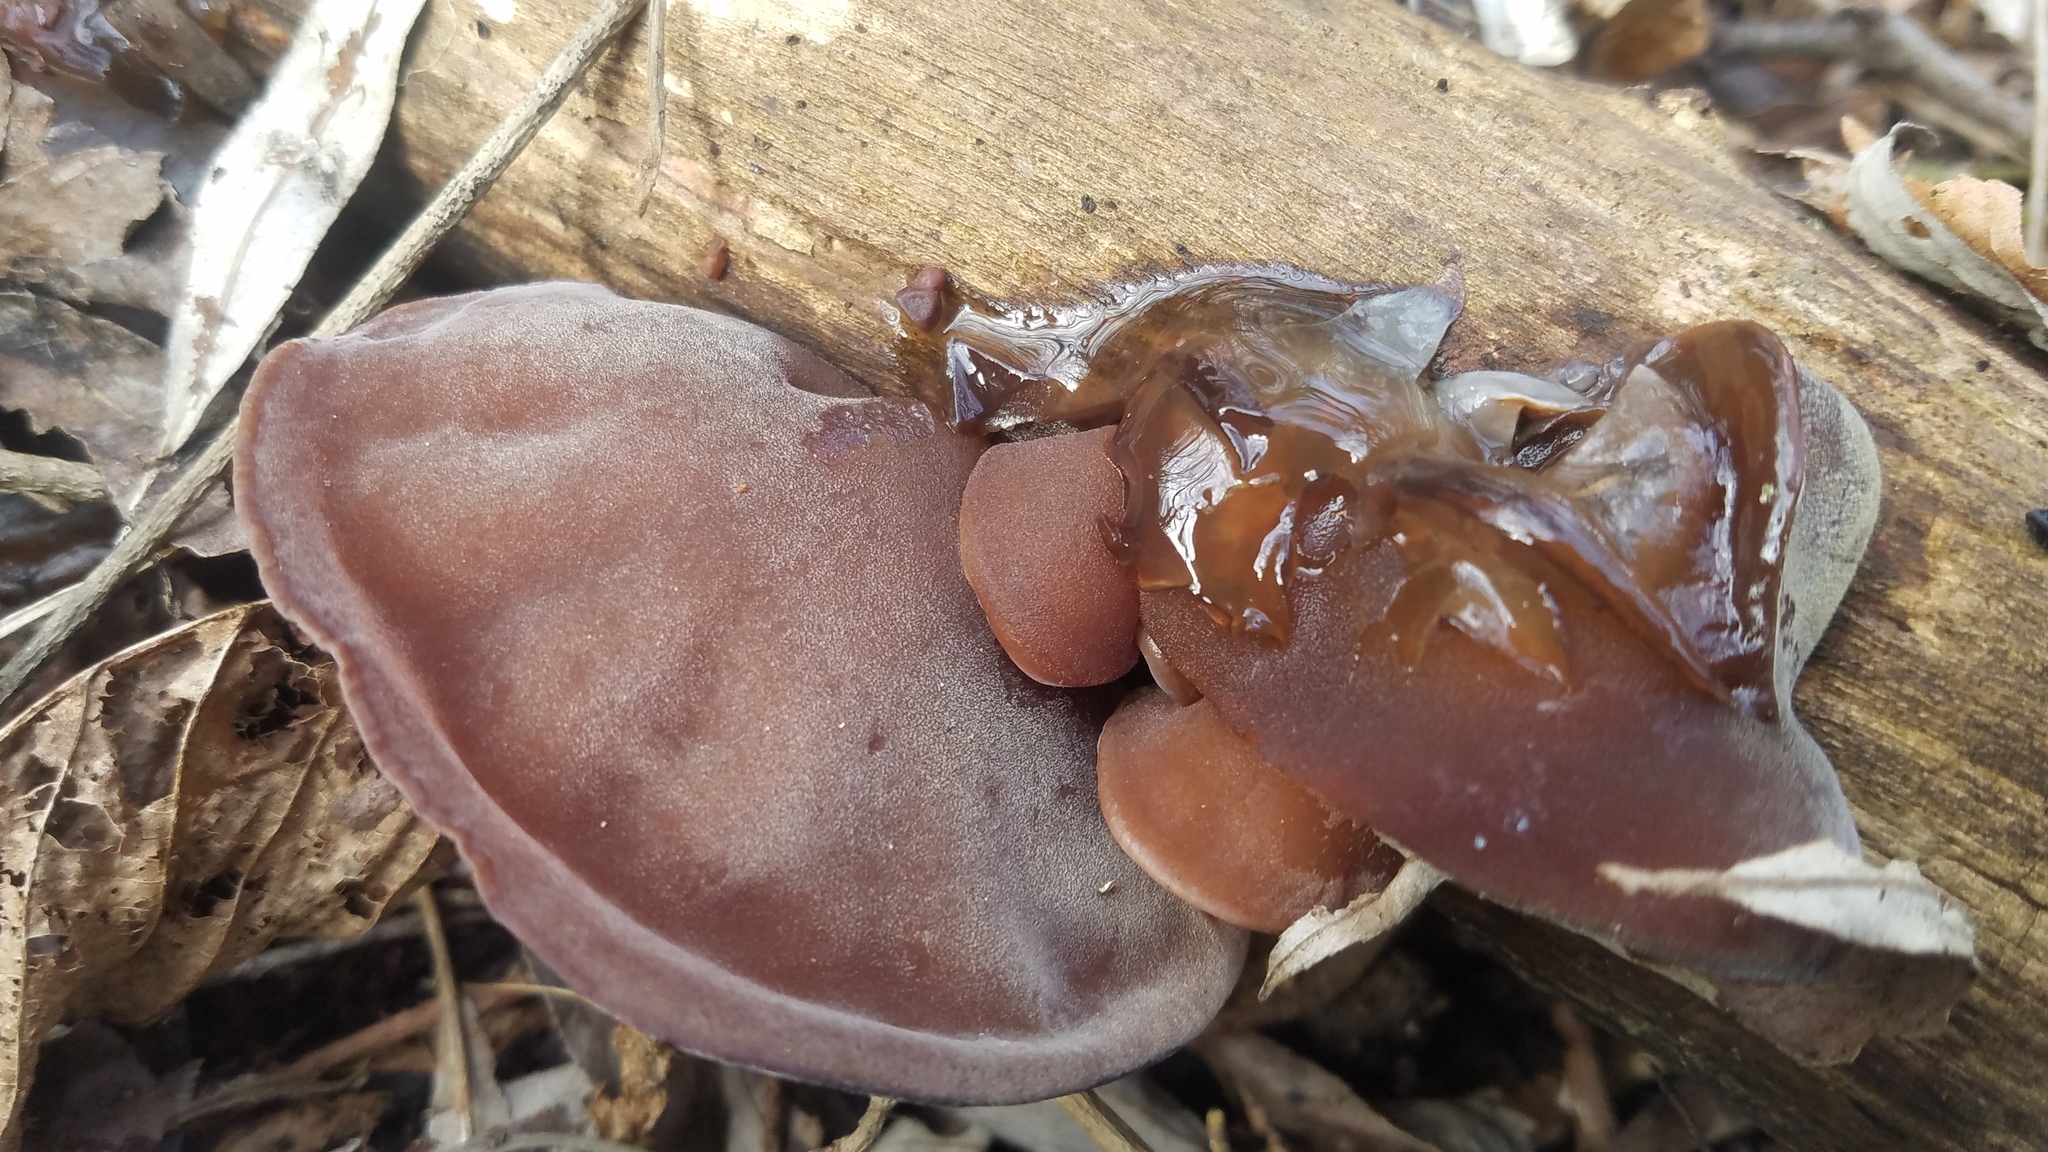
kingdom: Fungi
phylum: Basidiomycota
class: Agaricomycetes
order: Auriculariales
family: Auriculariaceae
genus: Auricularia
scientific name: Auricularia auricula-judae
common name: Jelly ear
